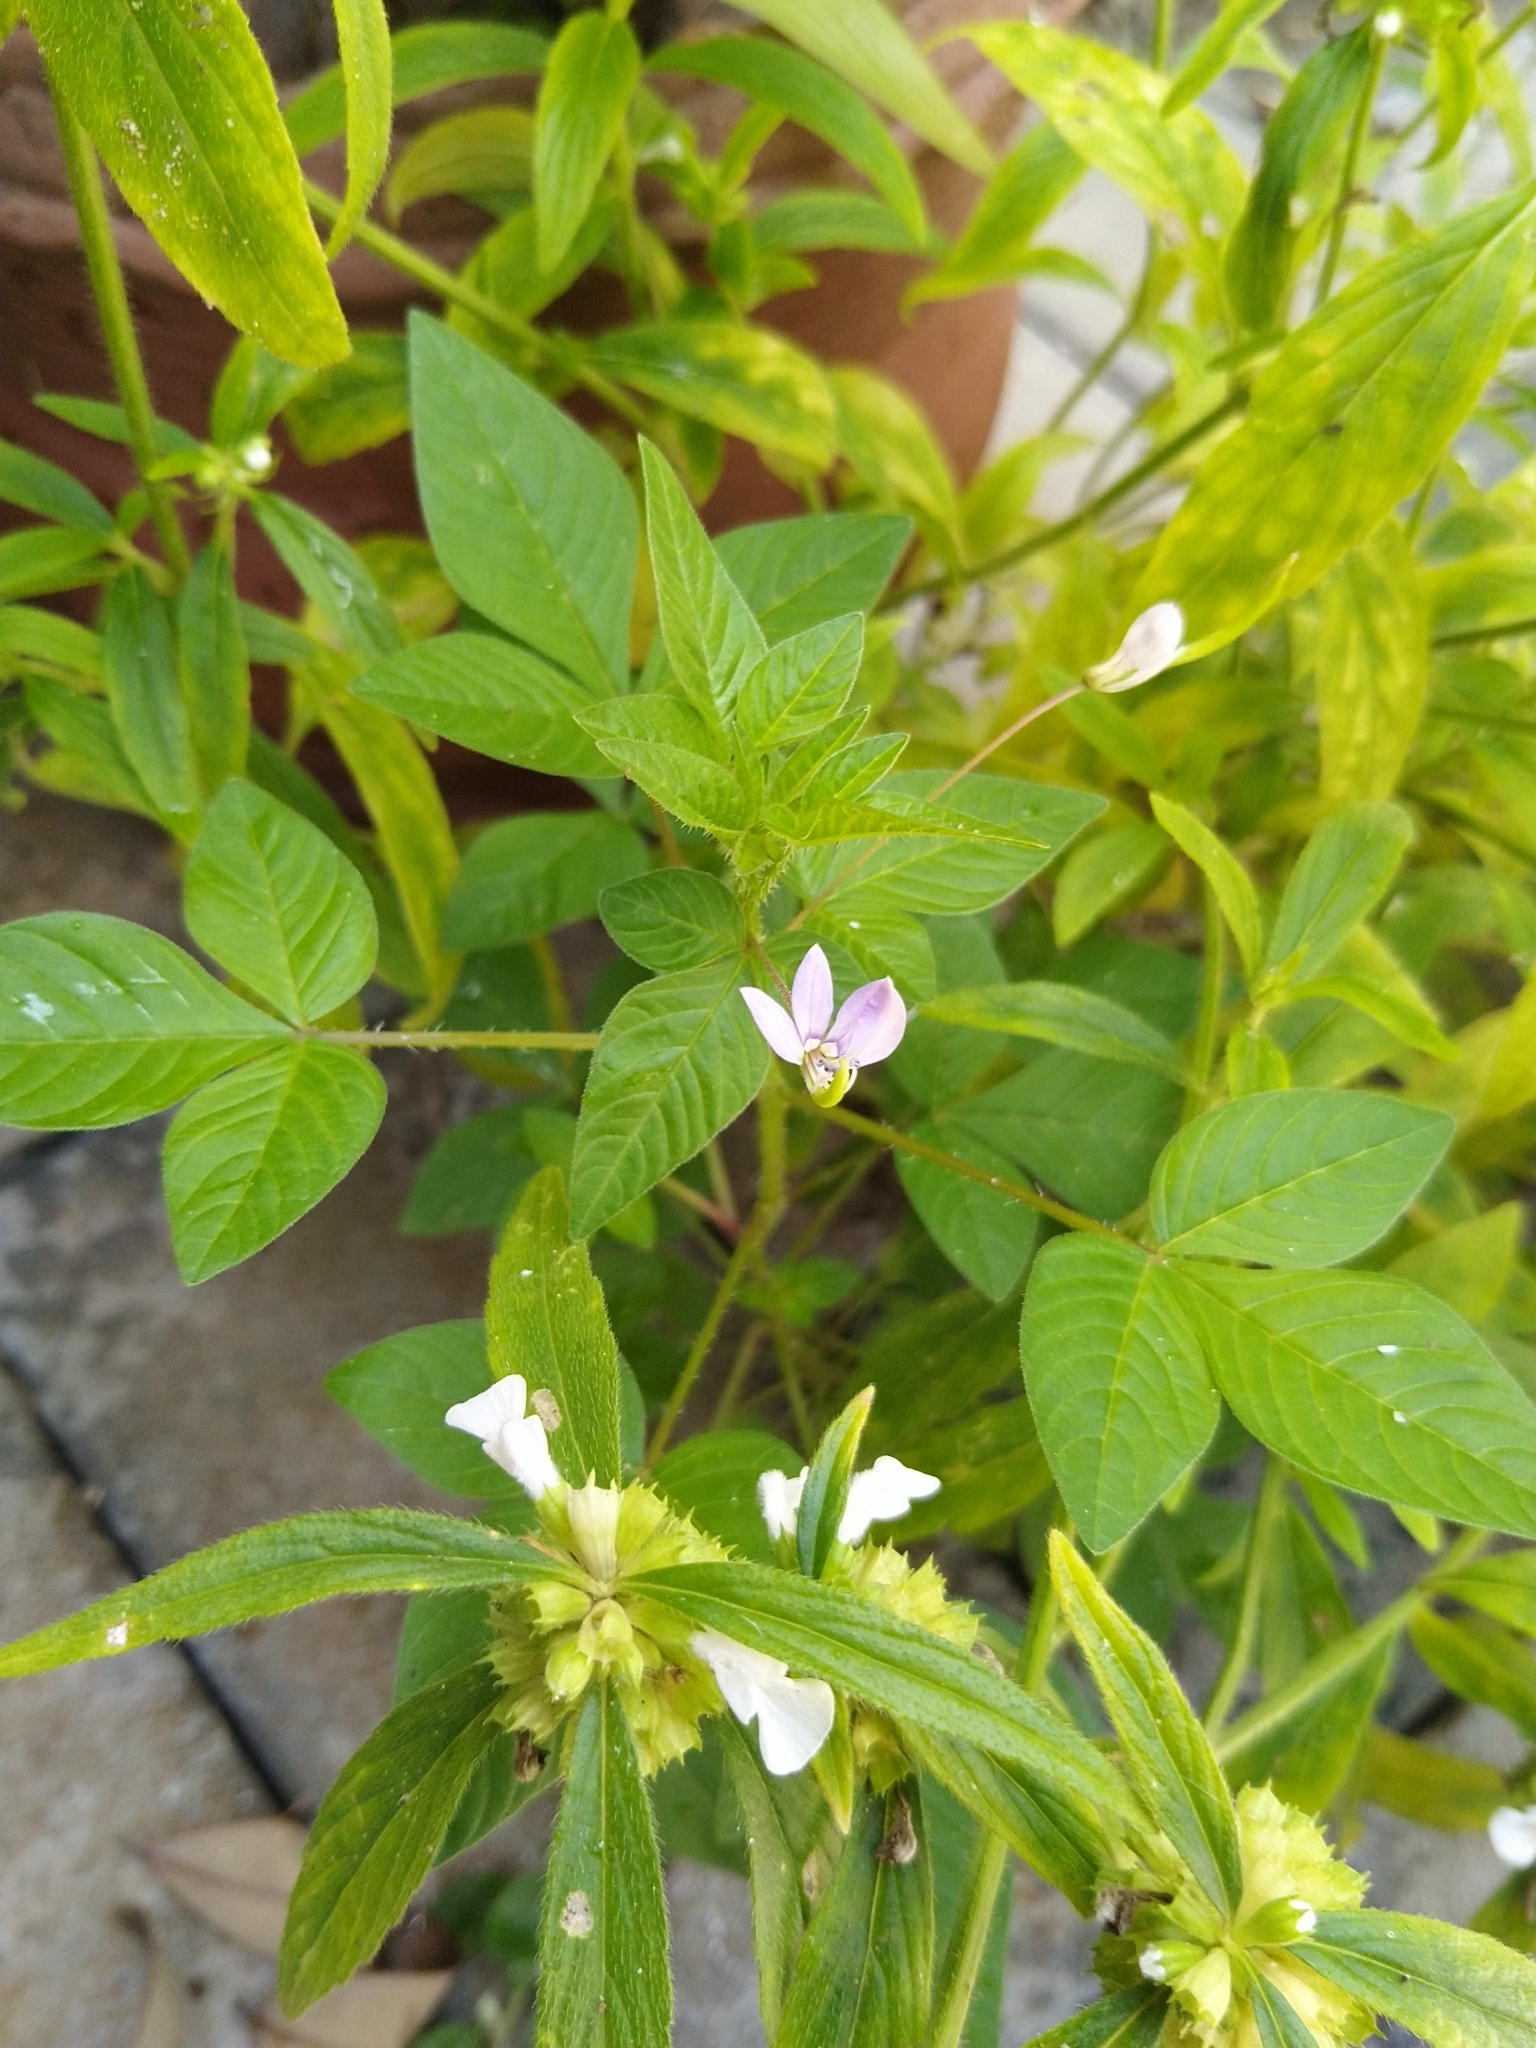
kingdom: Plantae
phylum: Tracheophyta
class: Magnoliopsida
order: Brassicales
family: Cleomaceae
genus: Sieruela
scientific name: Sieruela rutidosperma
